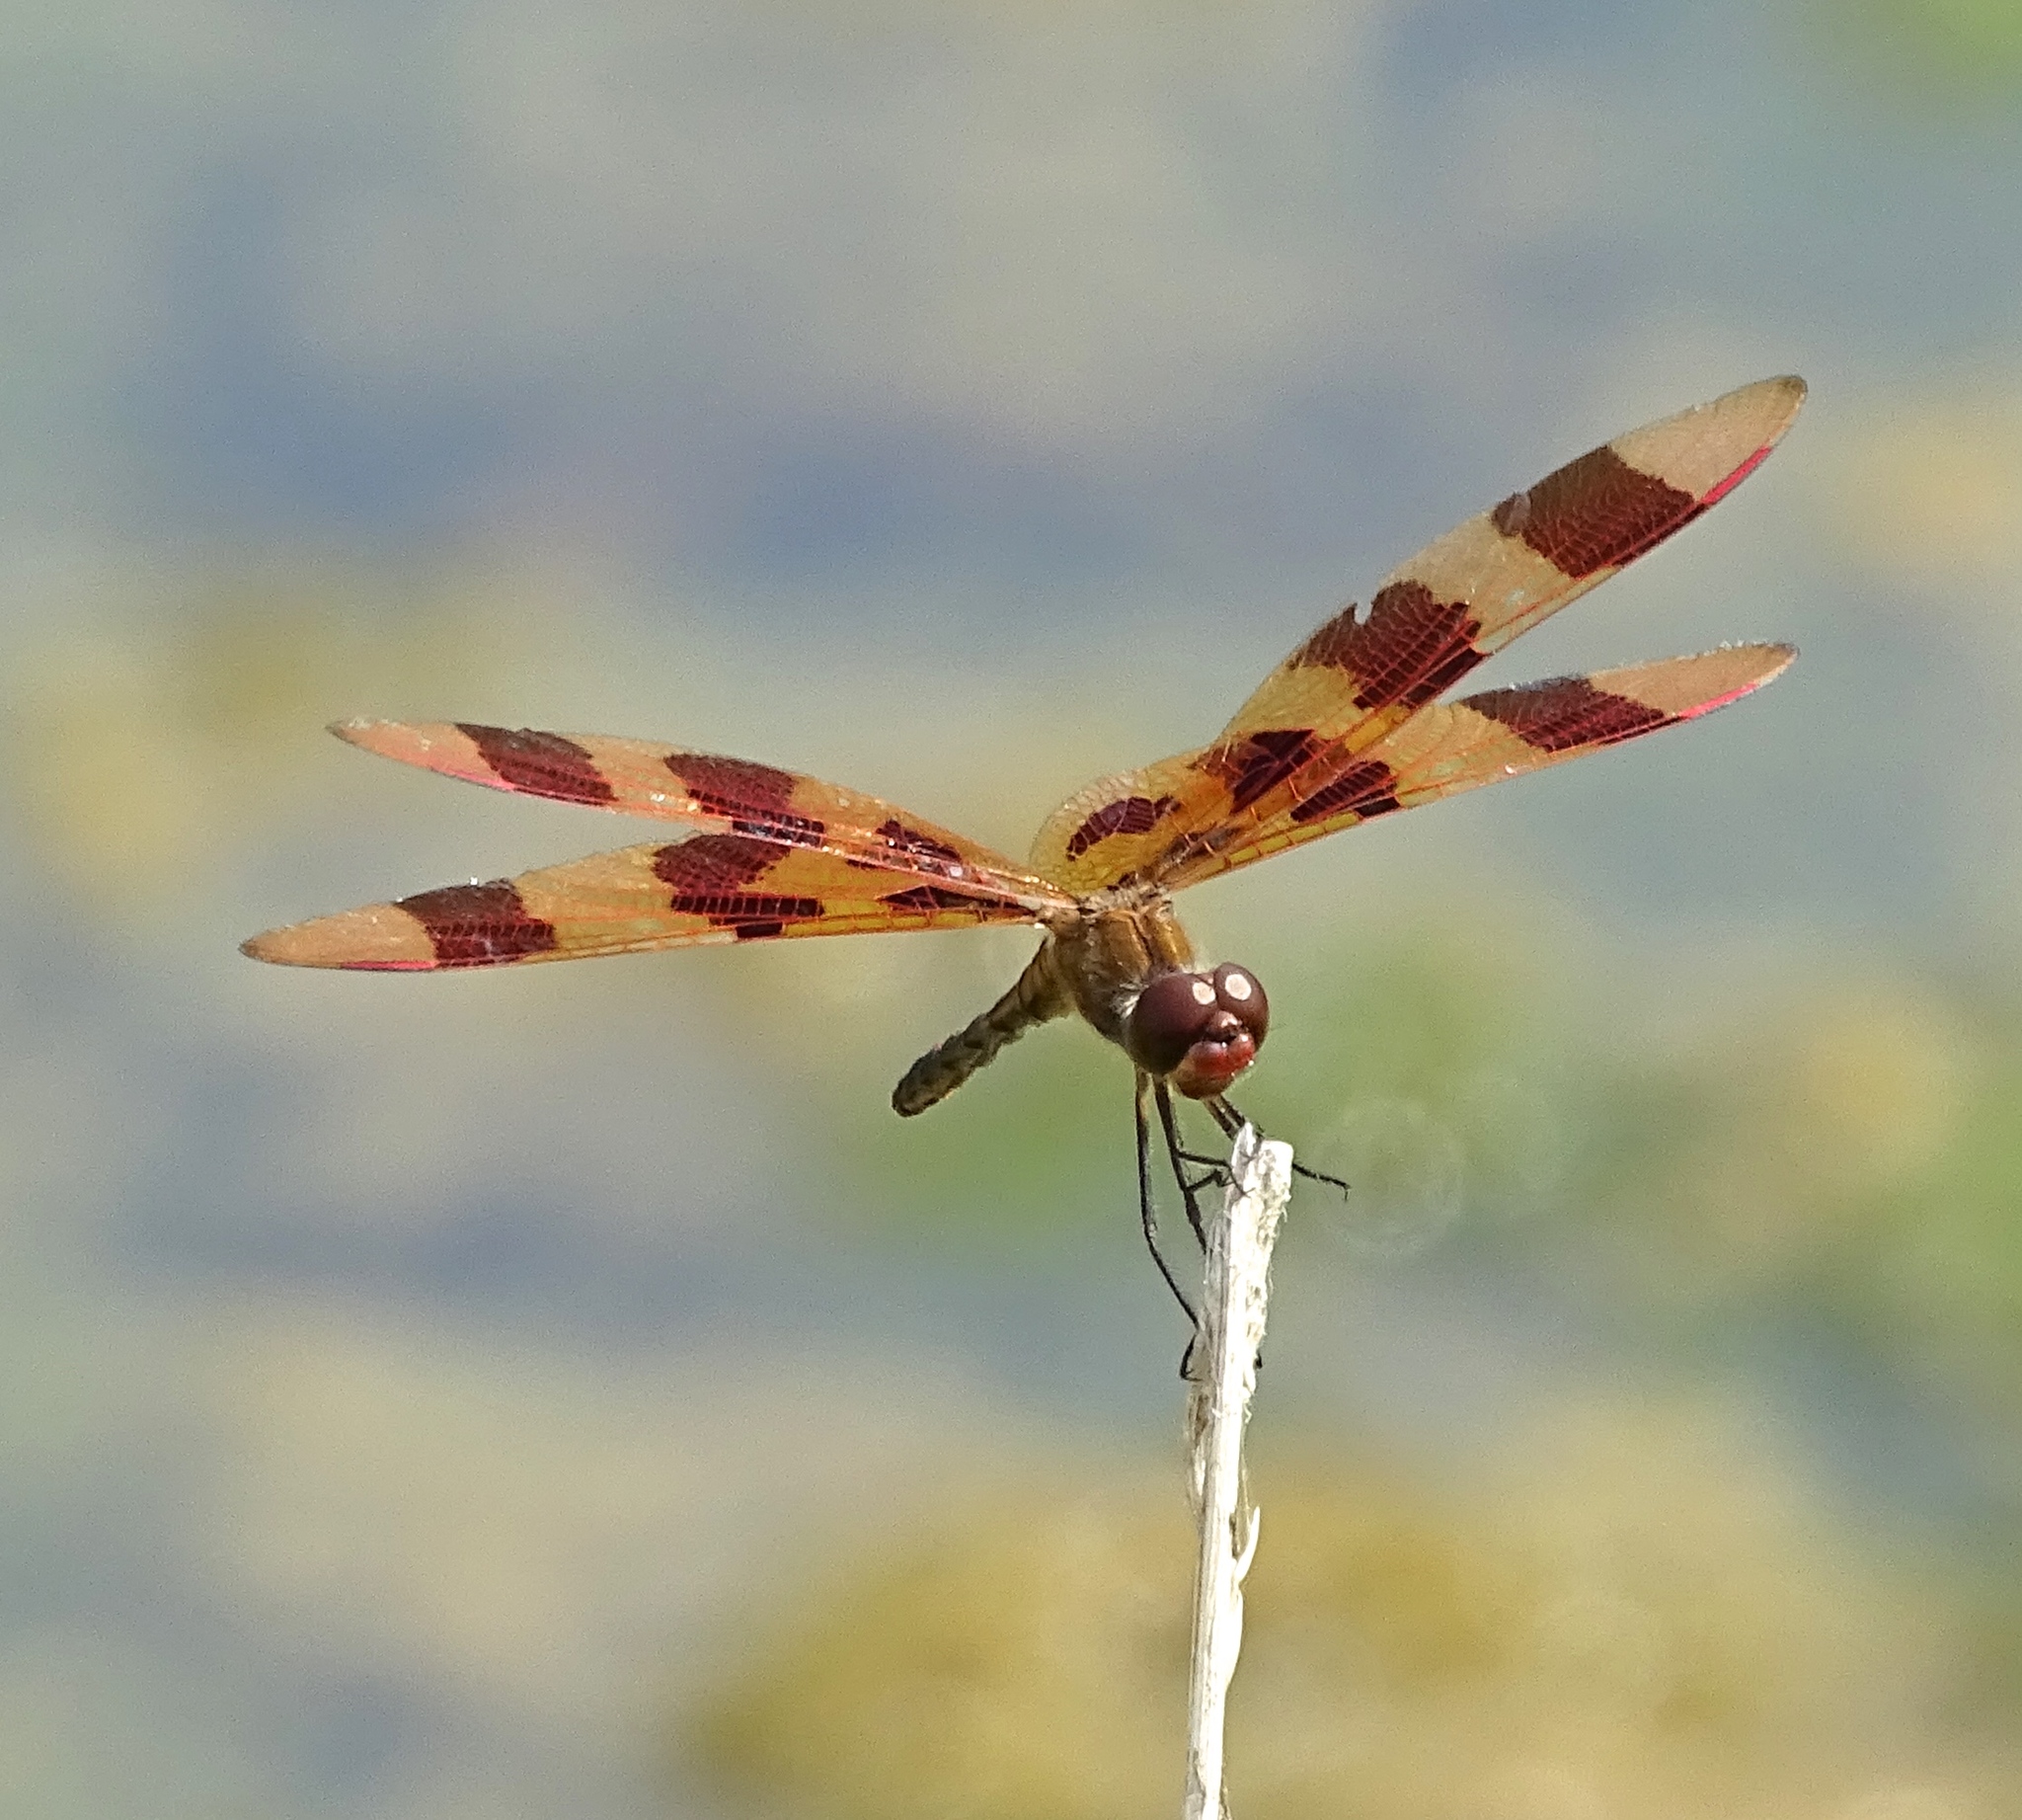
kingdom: Animalia
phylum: Arthropoda
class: Insecta
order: Odonata
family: Libellulidae
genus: Celithemis
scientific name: Celithemis eponina
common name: Halloween pennant
